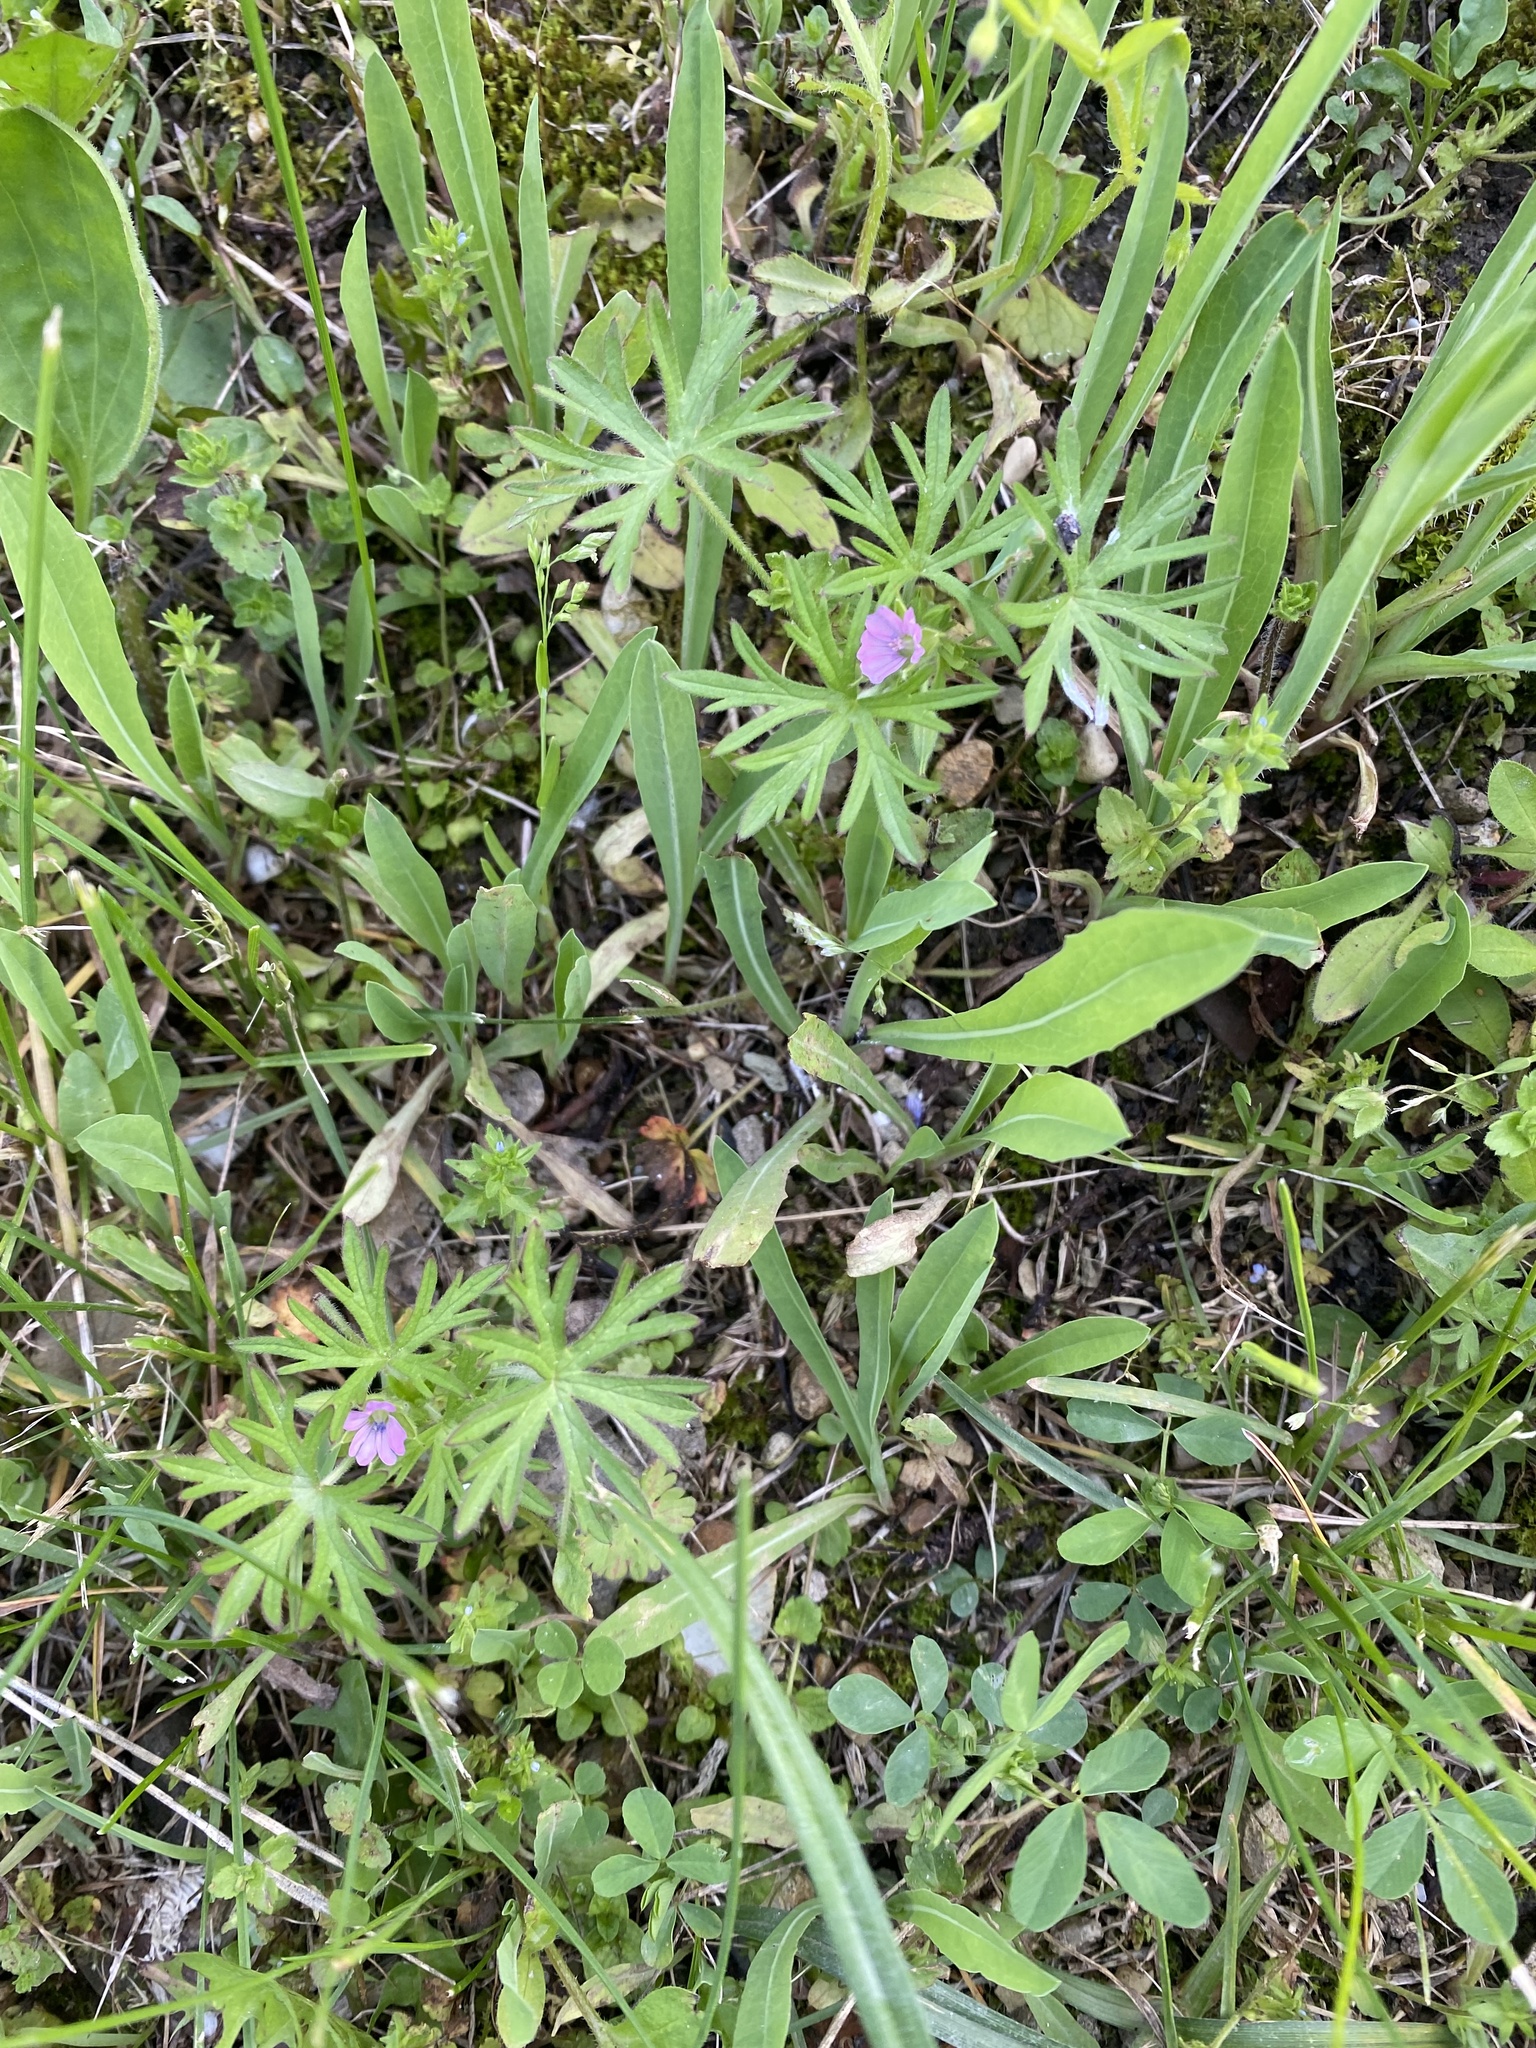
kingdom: Plantae
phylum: Tracheophyta
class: Magnoliopsida
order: Geraniales
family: Geraniaceae
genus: Geranium
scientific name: Geranium dissectum
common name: Cut-leaved crane's-bill
